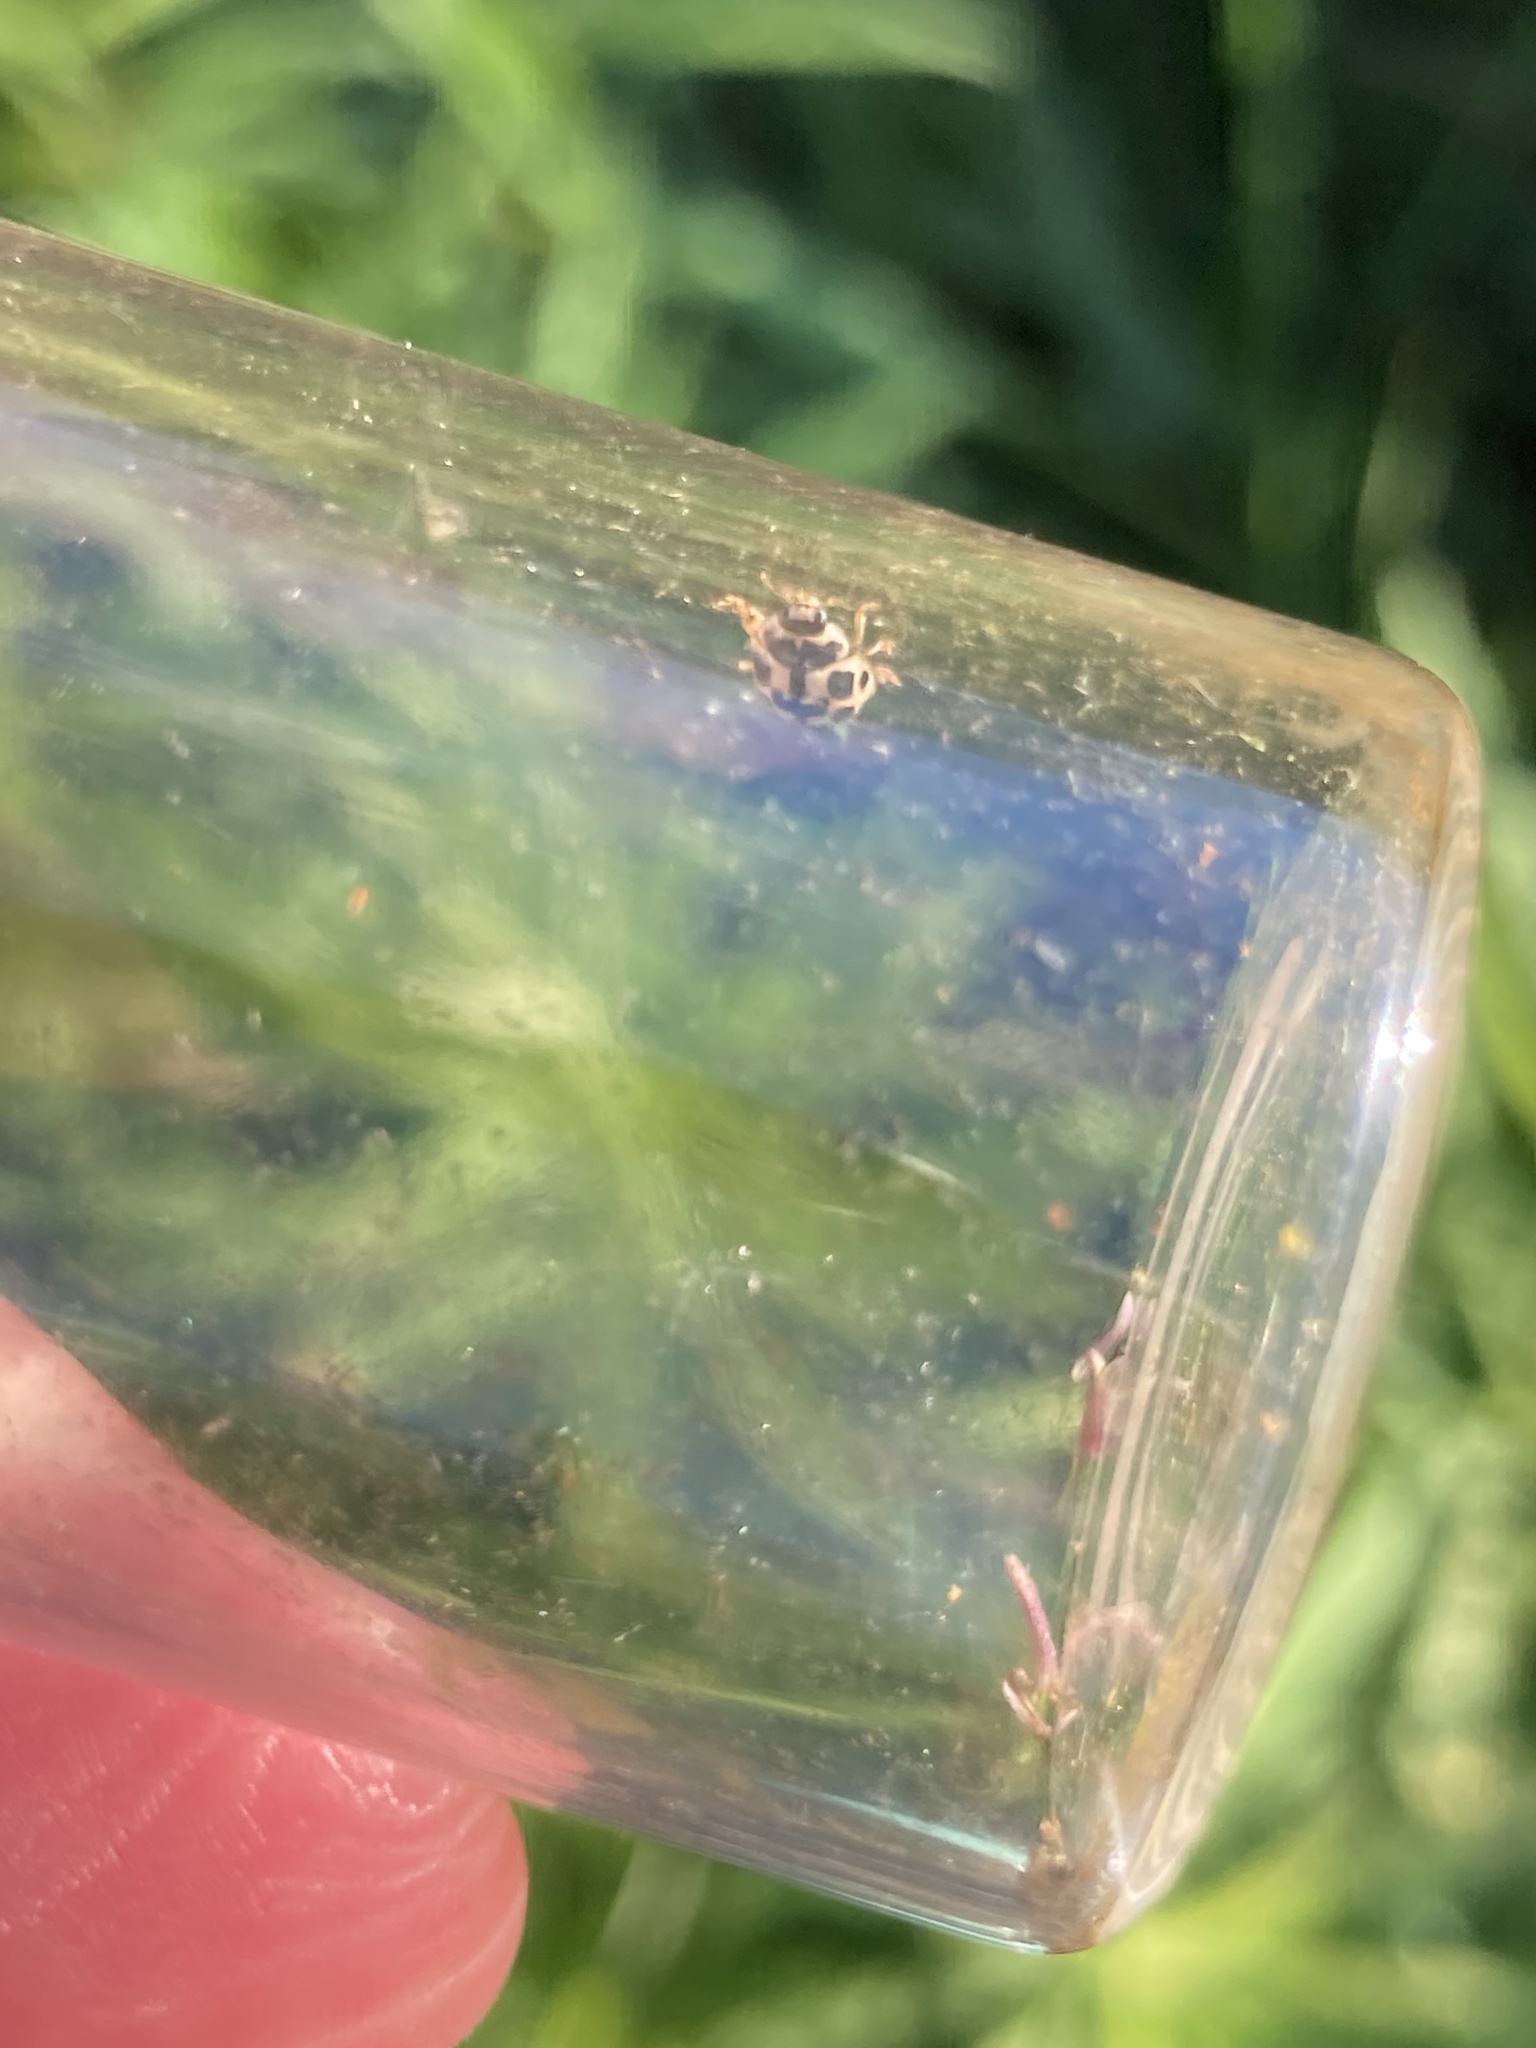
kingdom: Animalia
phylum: Arthropoda
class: Insecta
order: Coleoptera
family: Coccinellidae
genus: Propylaea
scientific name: Propylaea quatuordecimpunctata
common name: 14-spotted ladybird beetle
